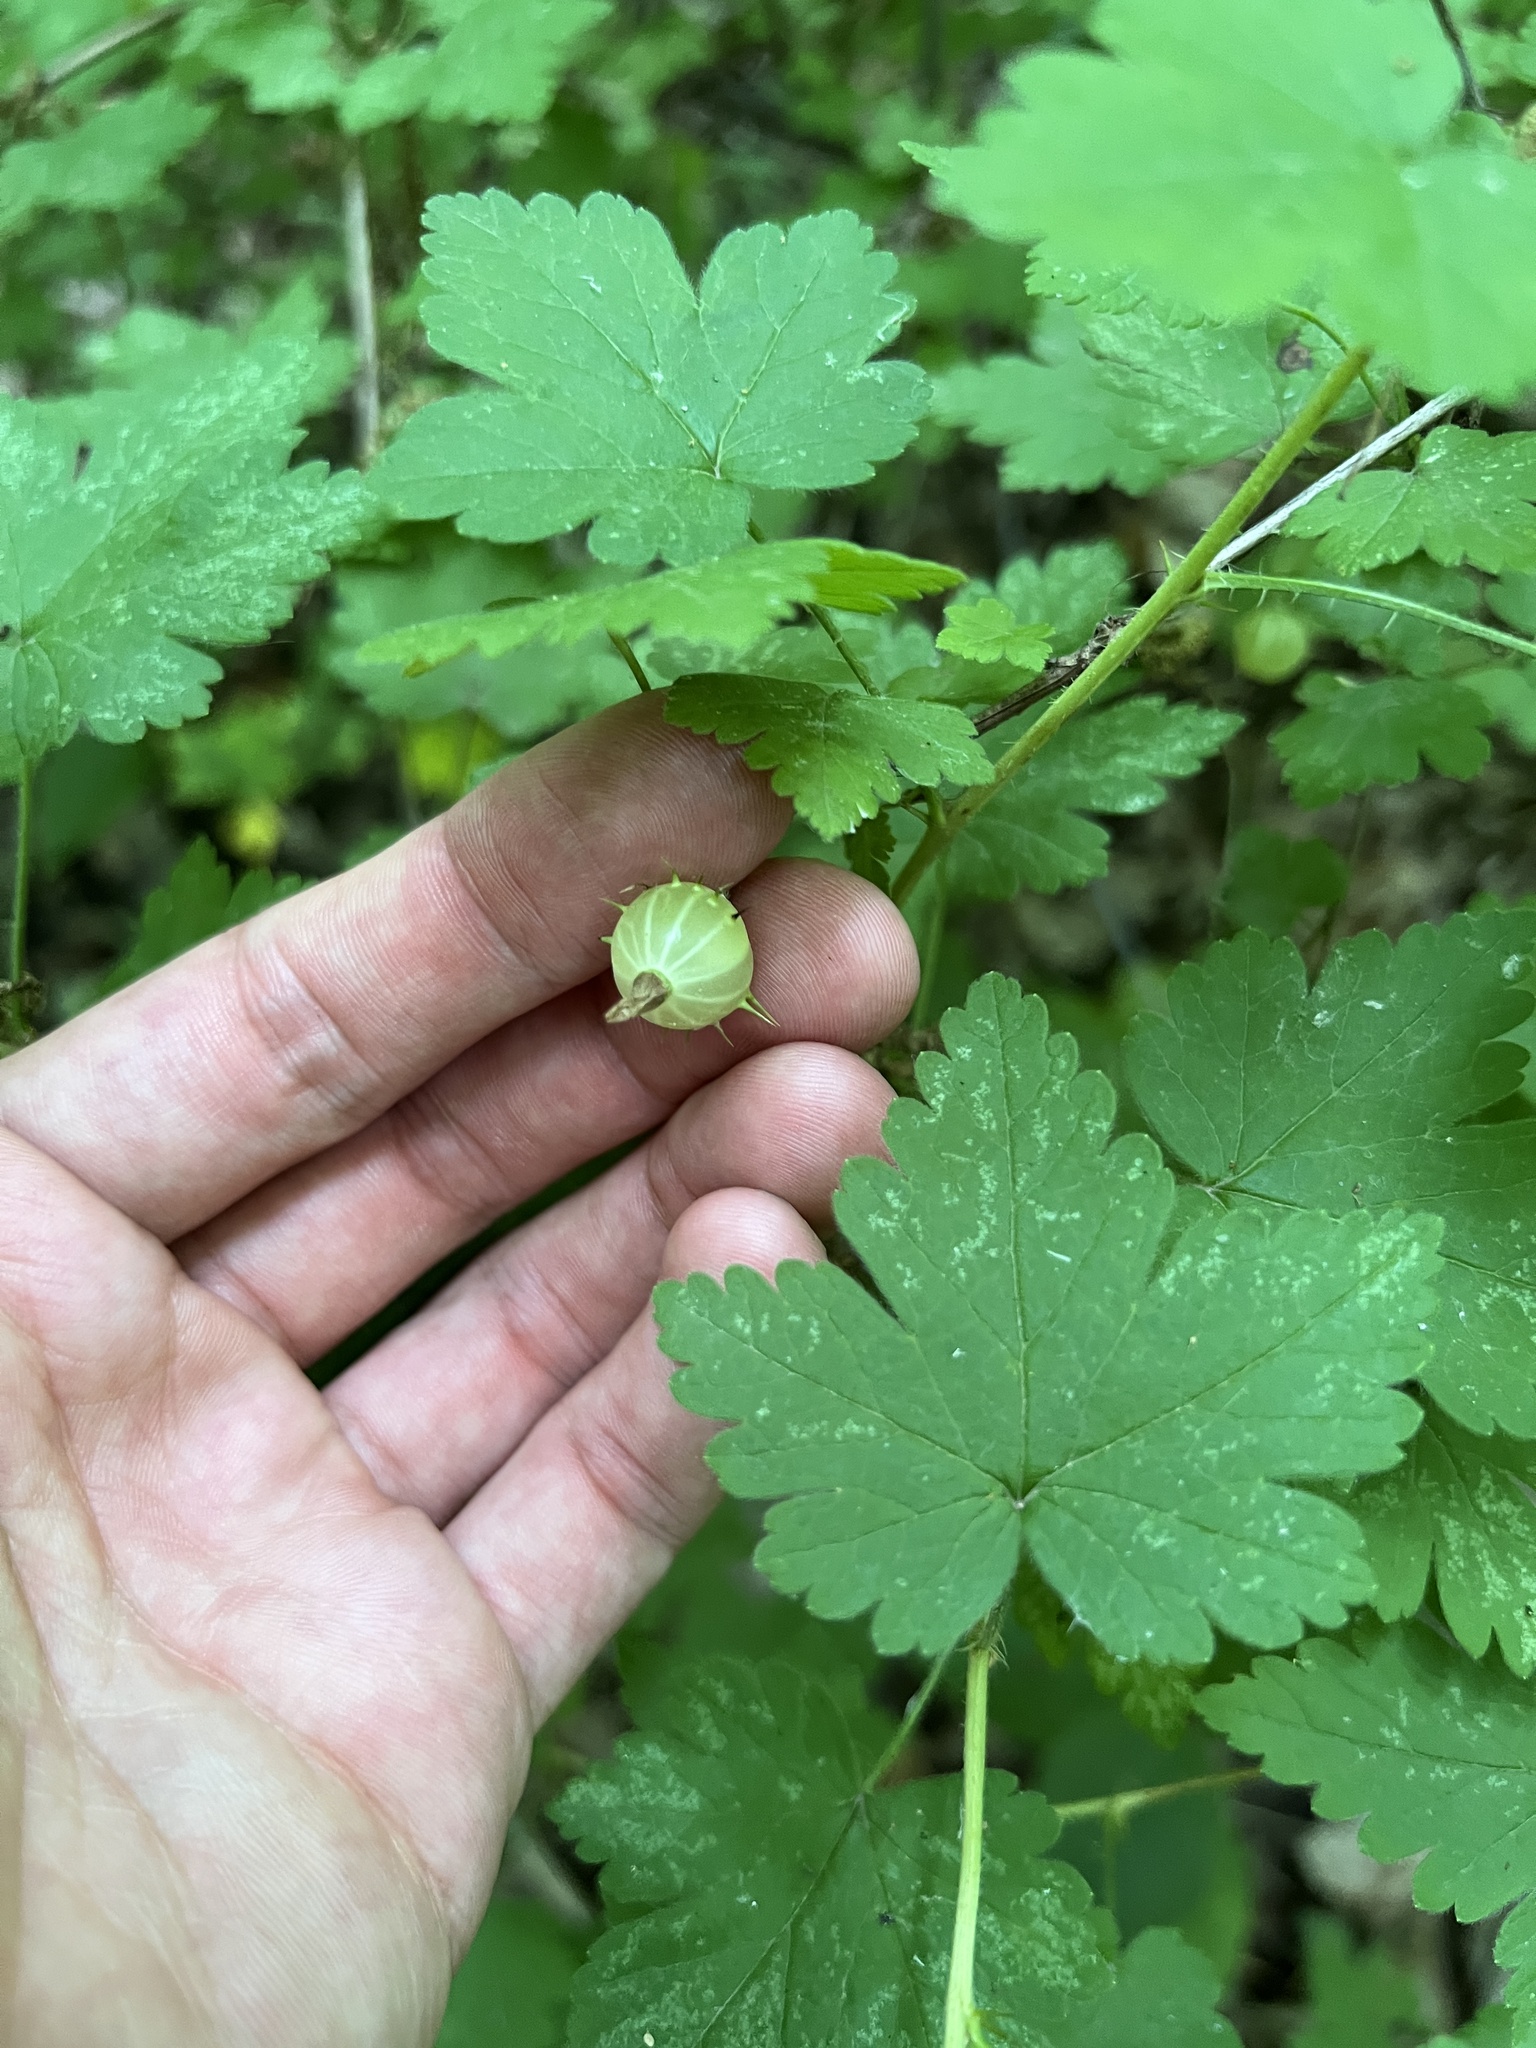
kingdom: Plantae
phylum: Tracheophyta
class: Magnoliopsida
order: Saxifragales
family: Grossulariaceae
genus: Ribes
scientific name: Ribes cynosbati
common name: American gooseberry
